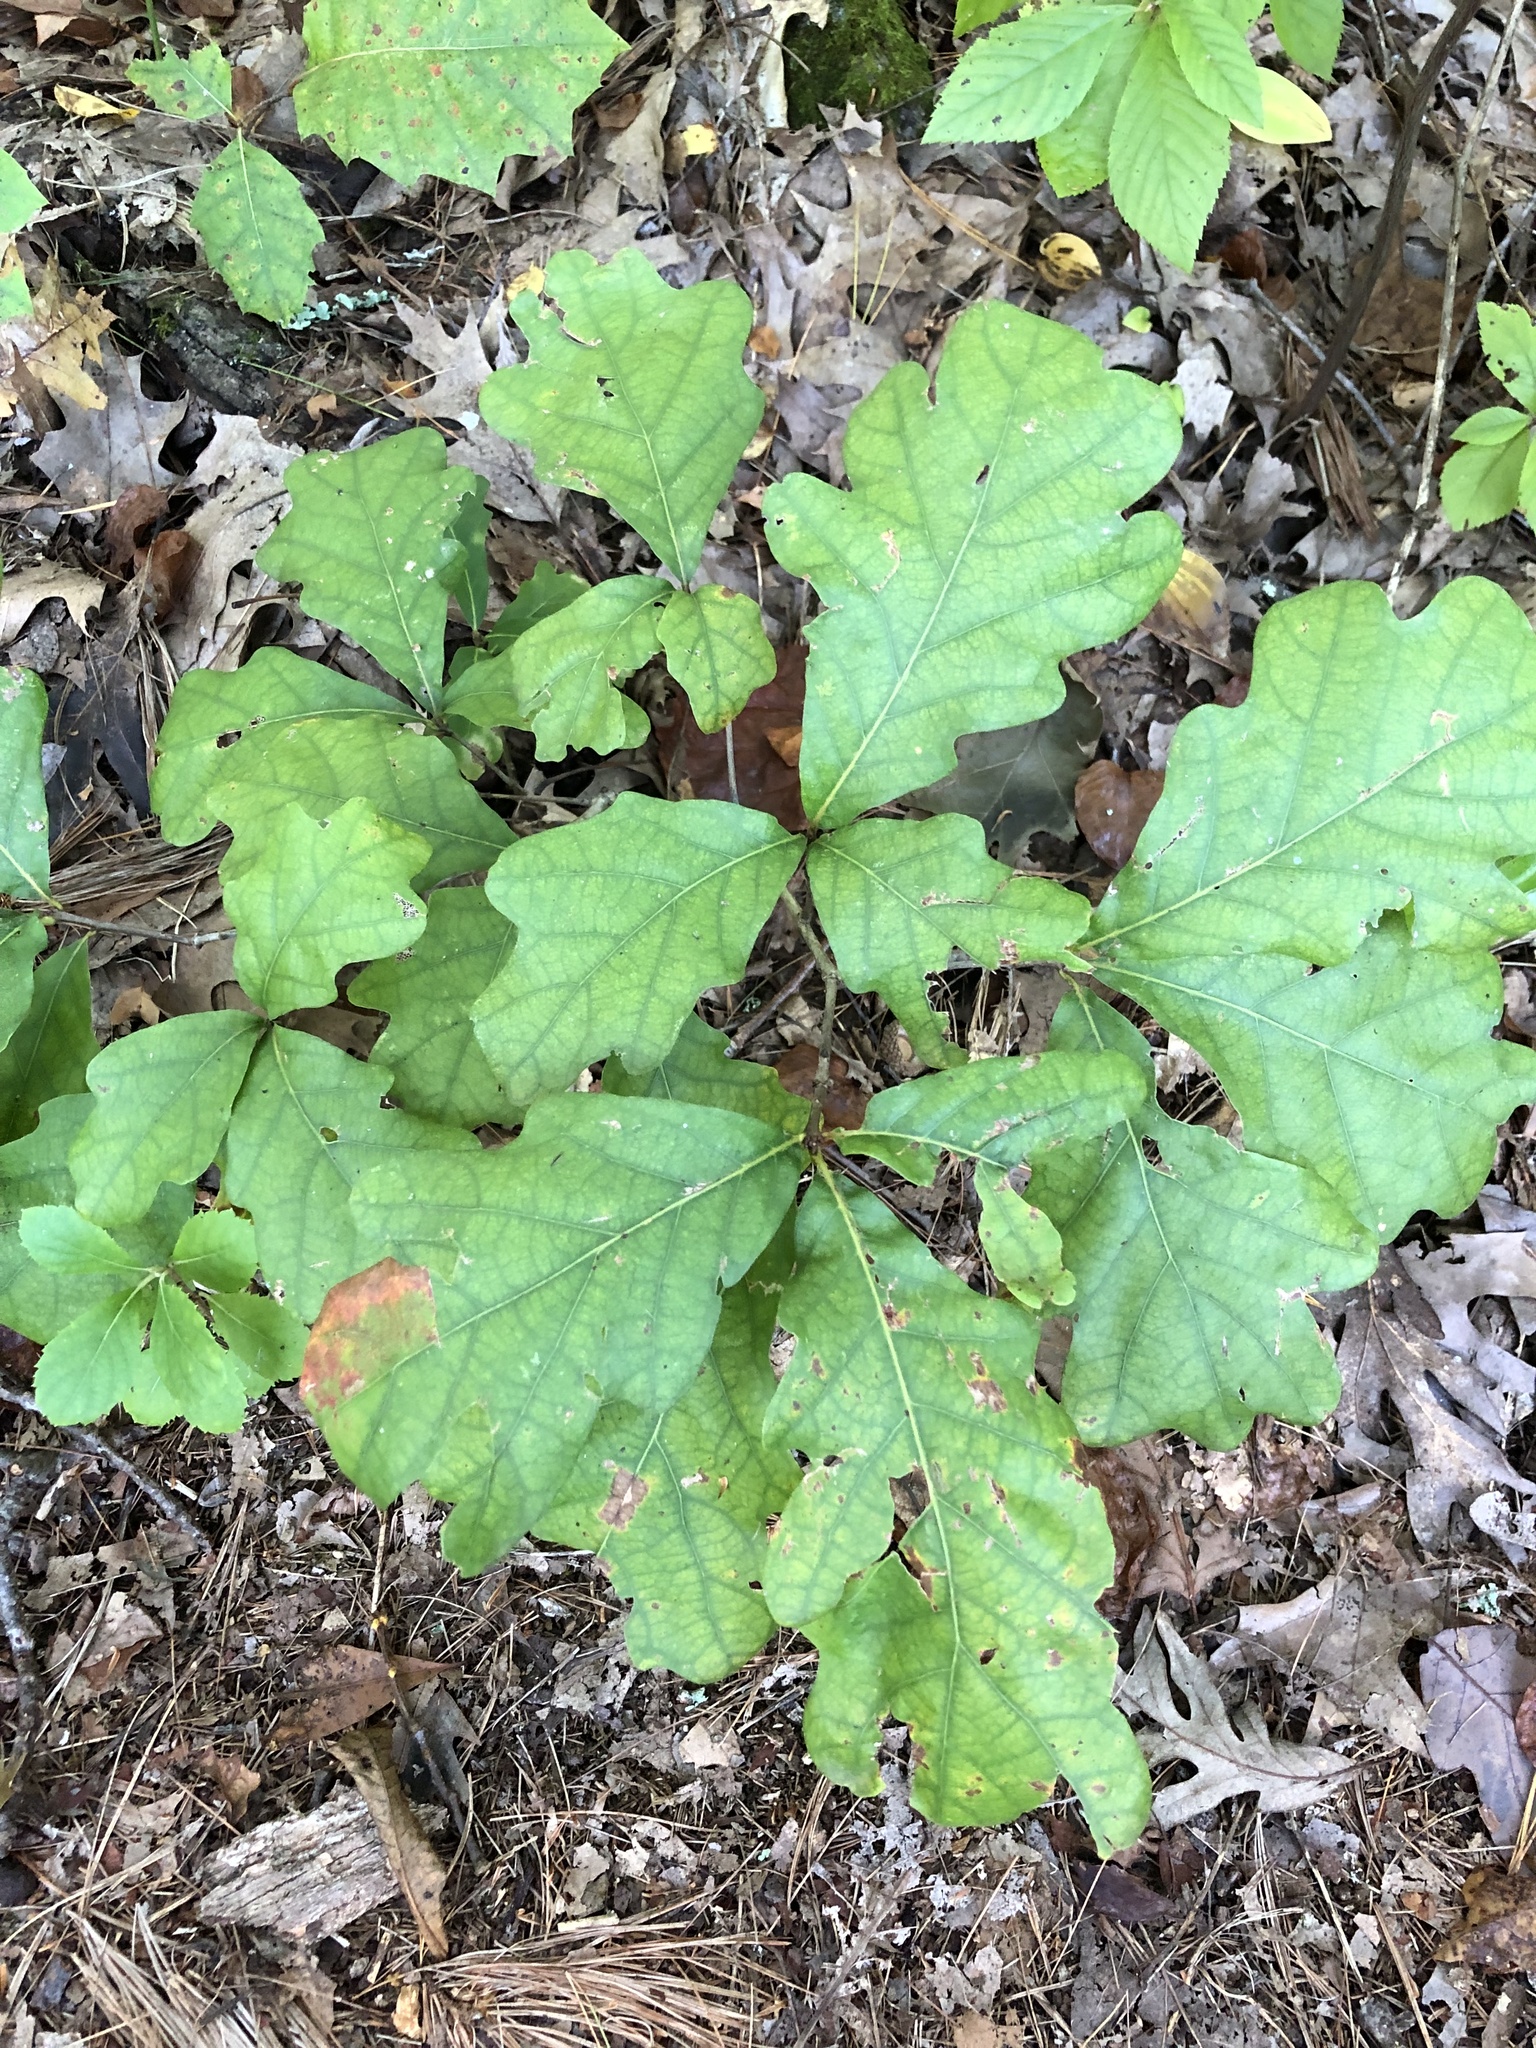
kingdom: Plantae
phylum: Tracheophyta
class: Magnoliopsida
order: Fagales
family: Fagaceae
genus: Quercus
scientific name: Quercus alba
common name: White oak
